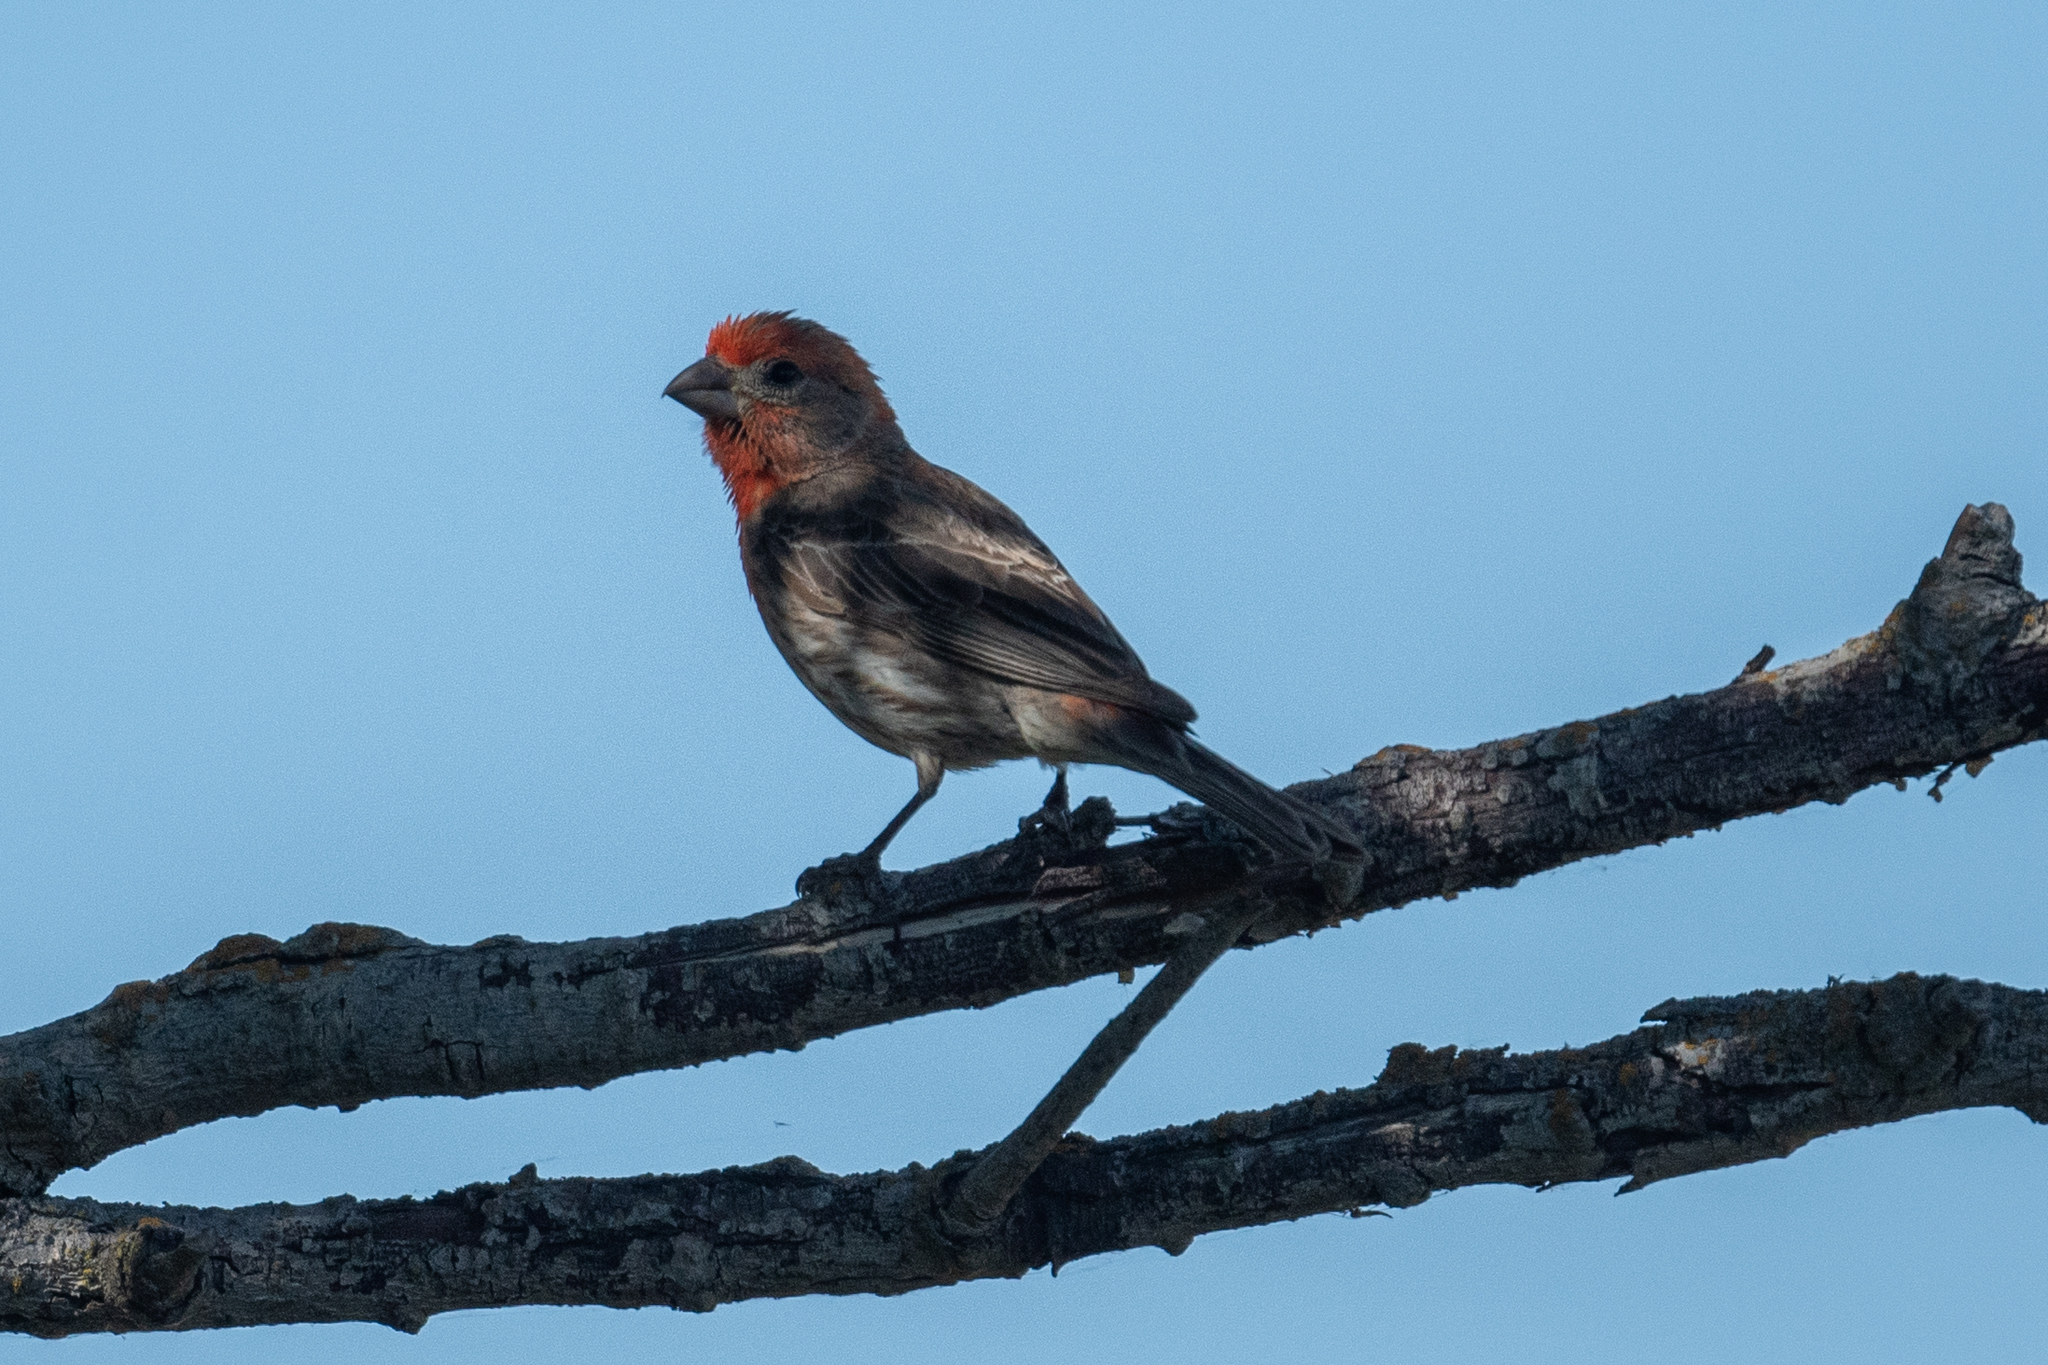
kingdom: Animalia
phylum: Chordata
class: Aves
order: Passeriformes
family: Fringillidae
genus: Haemorhous
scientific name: Haemorhous mexicanus
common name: House finch
